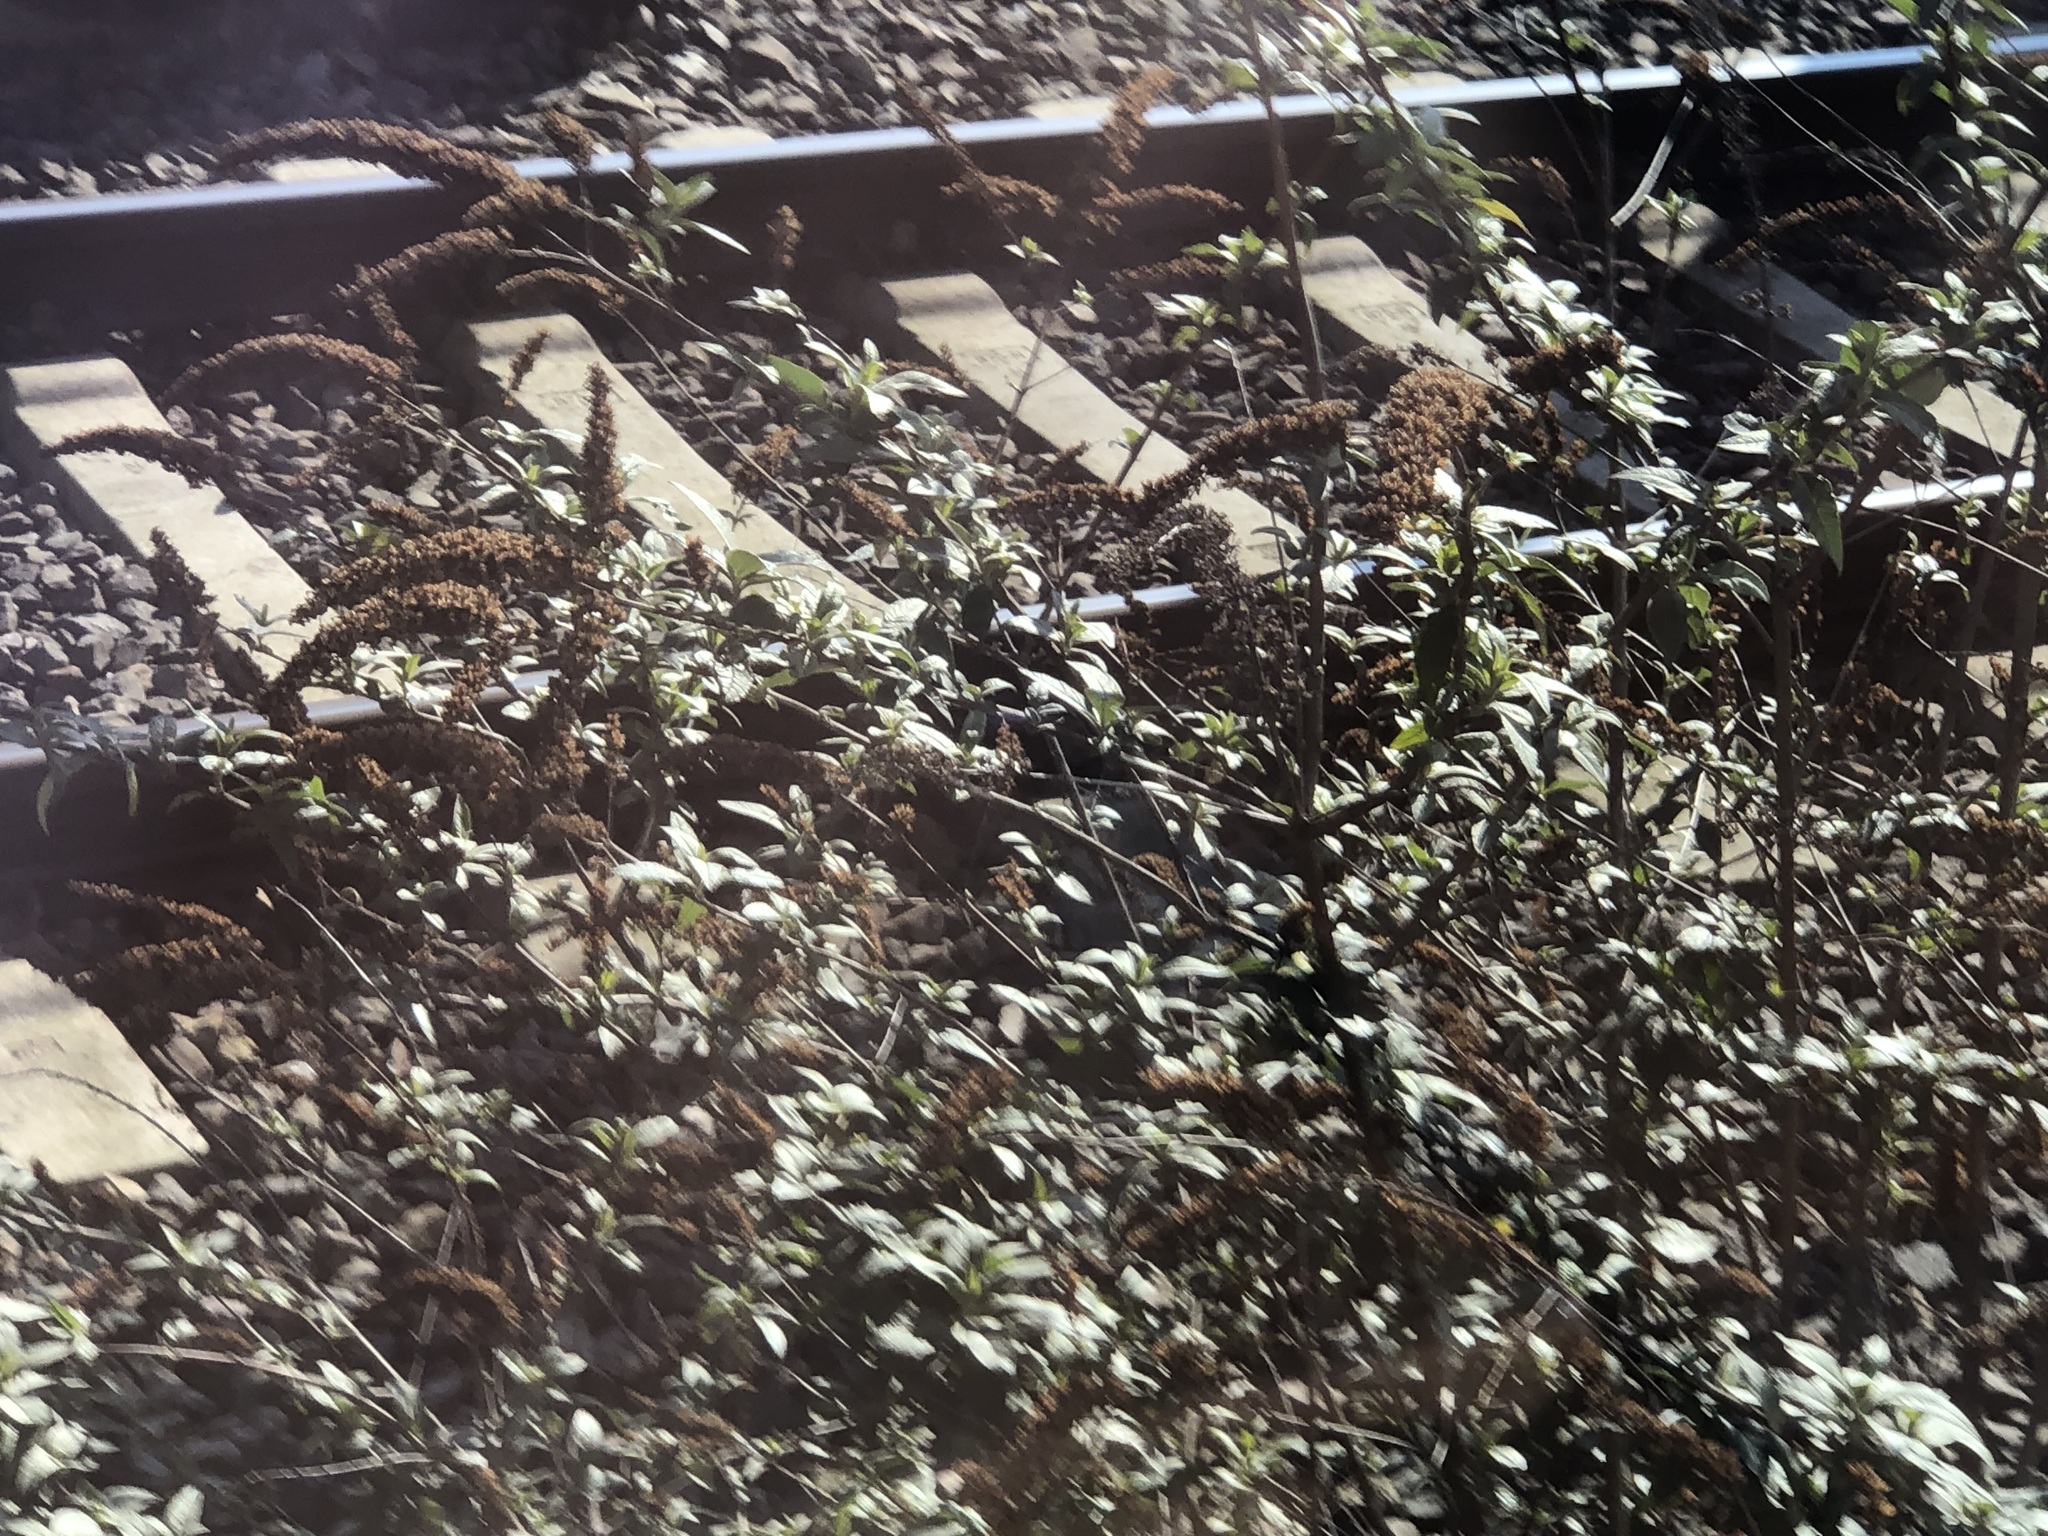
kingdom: Plantae
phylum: Tracheophyta
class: Magnoliopsida
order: Lamiales
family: Scrophulariaceae
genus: Buddleja
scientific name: Buddleja davidii
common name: Butterfly-bush
